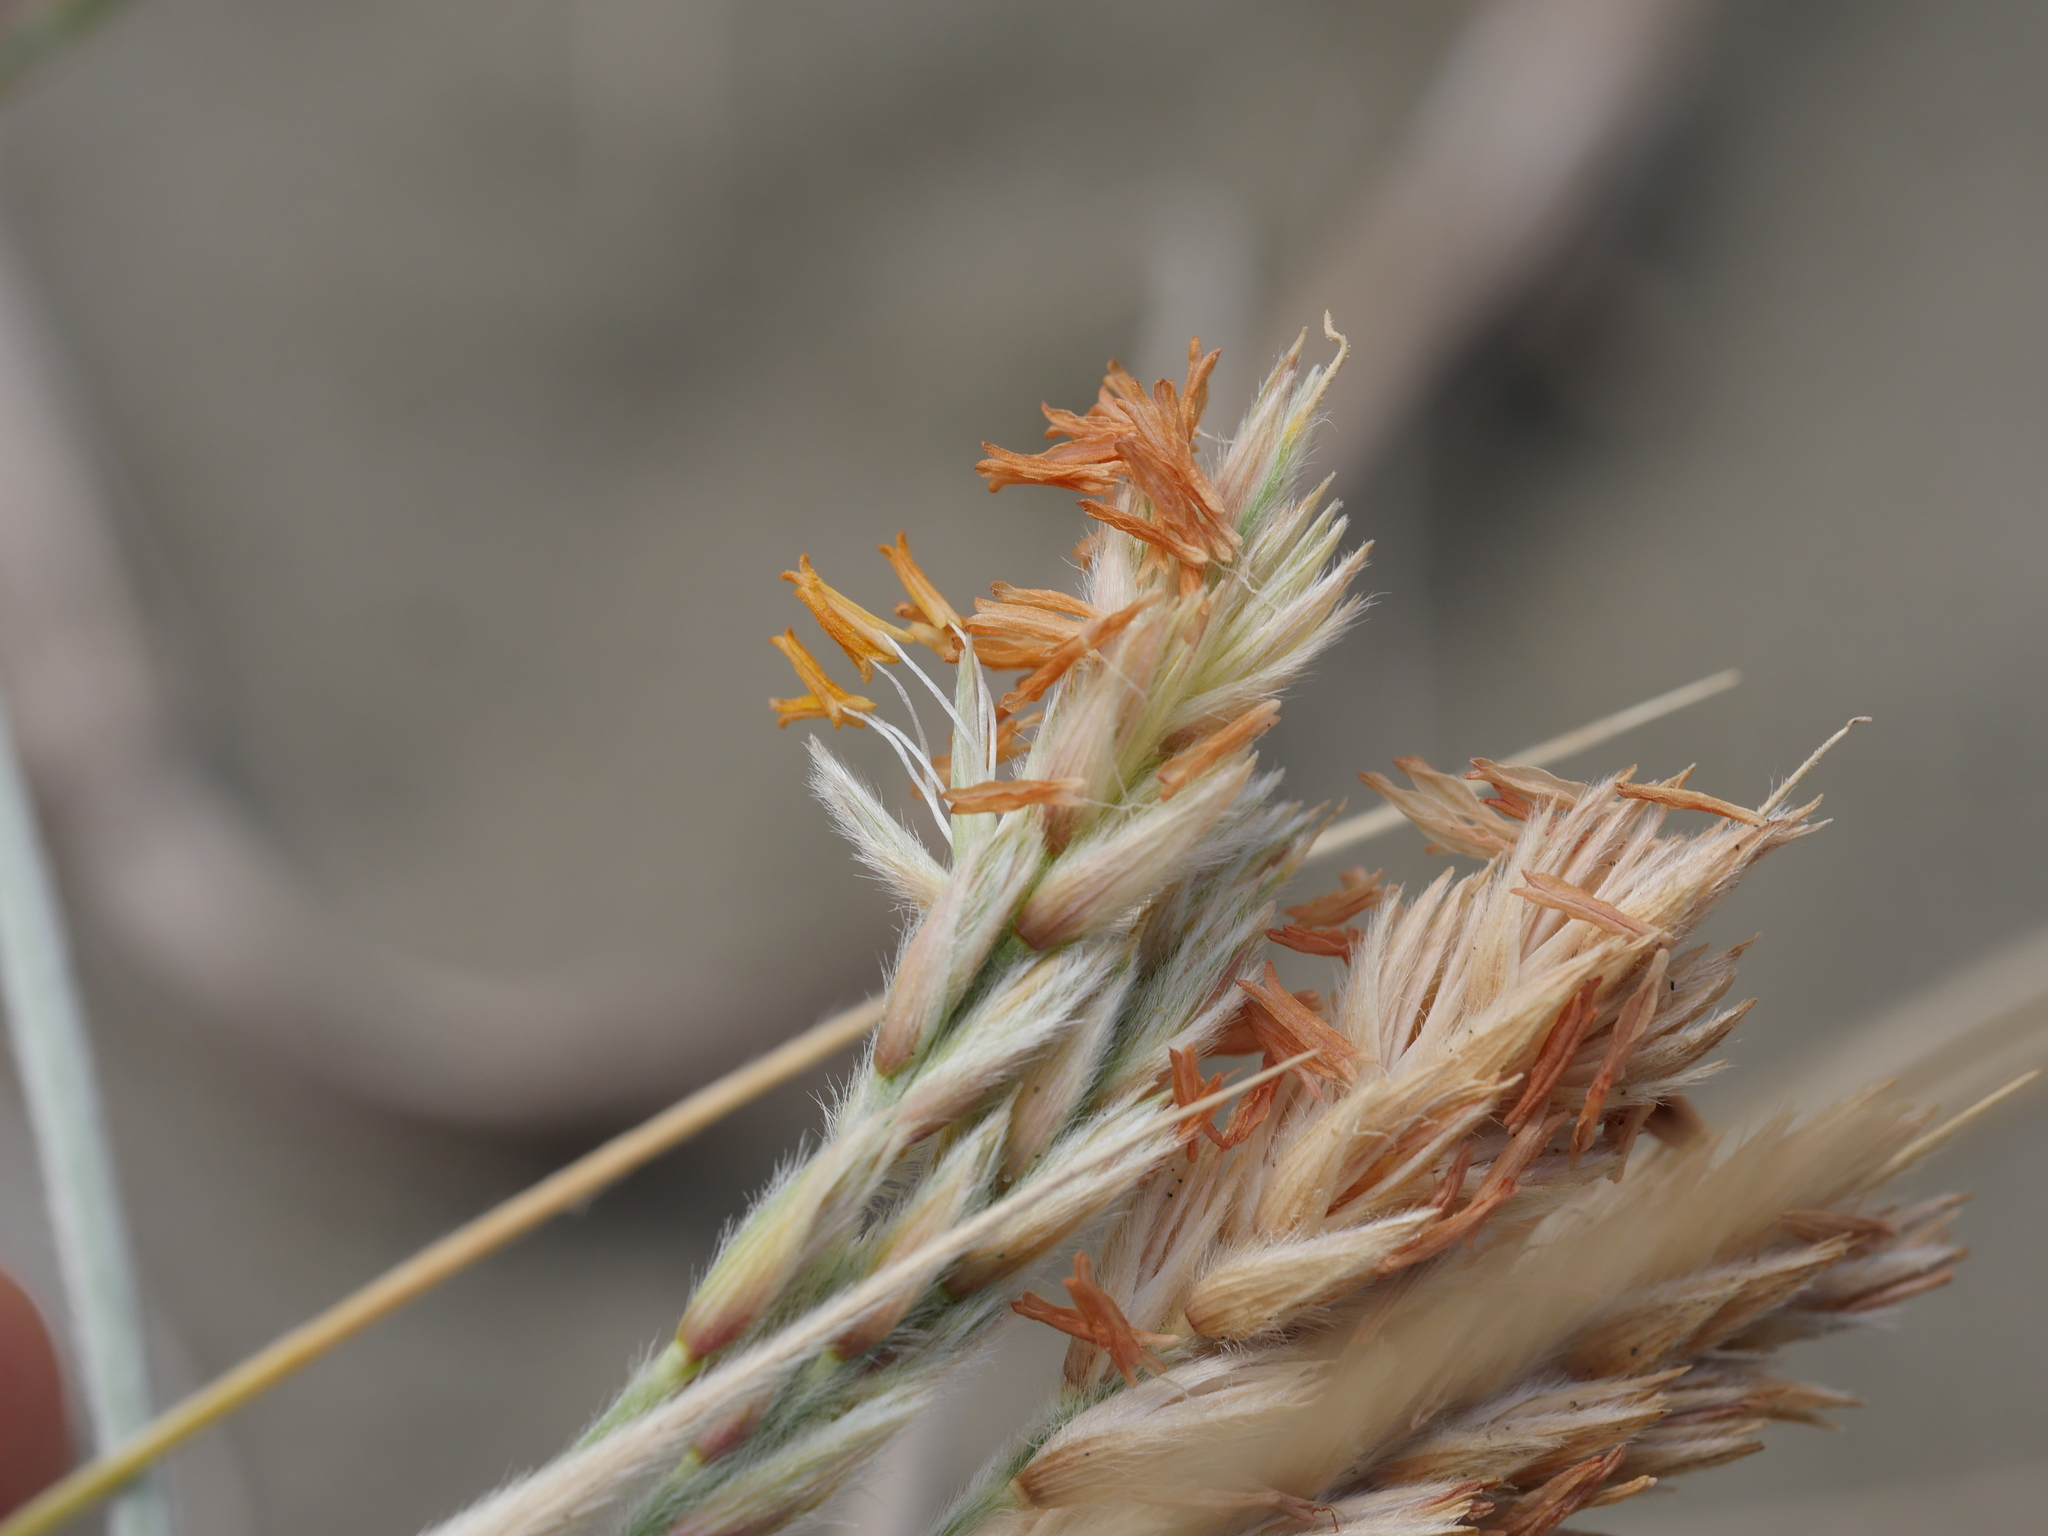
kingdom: Plantae
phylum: Tracheophyta
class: Liliopsida
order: Poales
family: Poaceae
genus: Spinifex
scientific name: Spinifex sericeus
